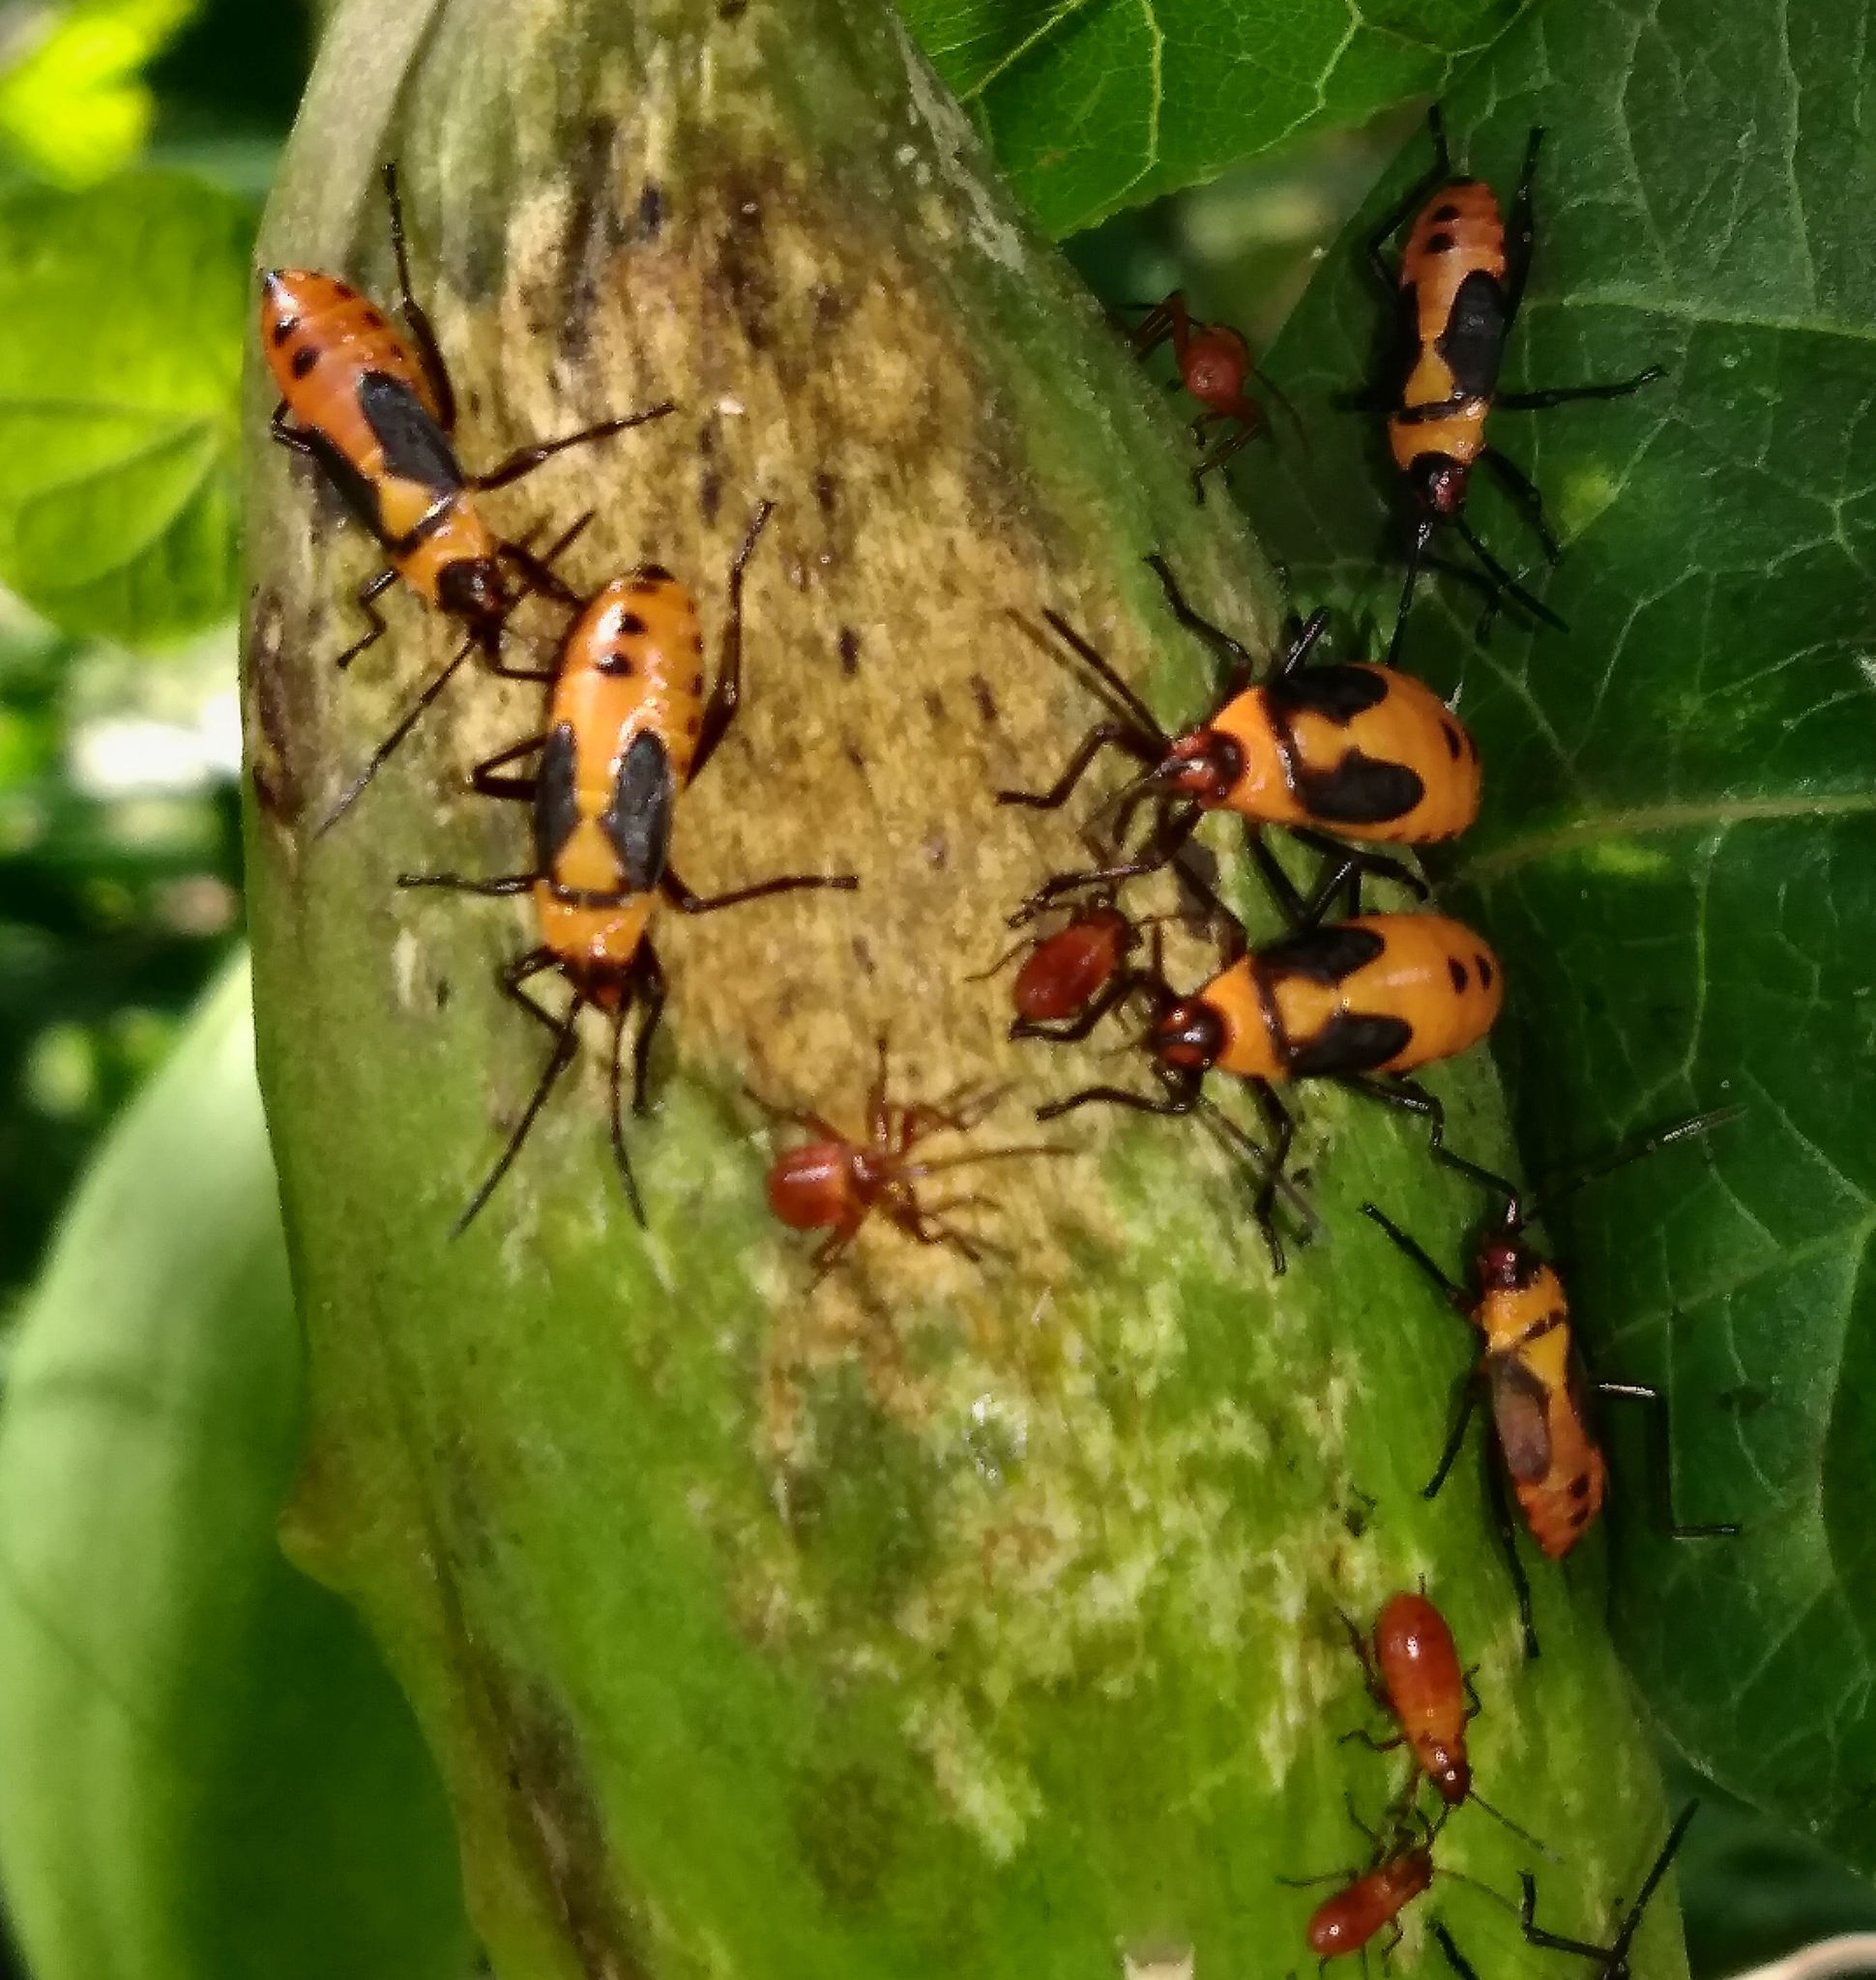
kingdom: Animalia
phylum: Arthropoda
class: Insecta
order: Hemiptera
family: Lygaeidae
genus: Oncopeltus
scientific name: Oncopeltus fasciatus
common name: Large milkweed bug
